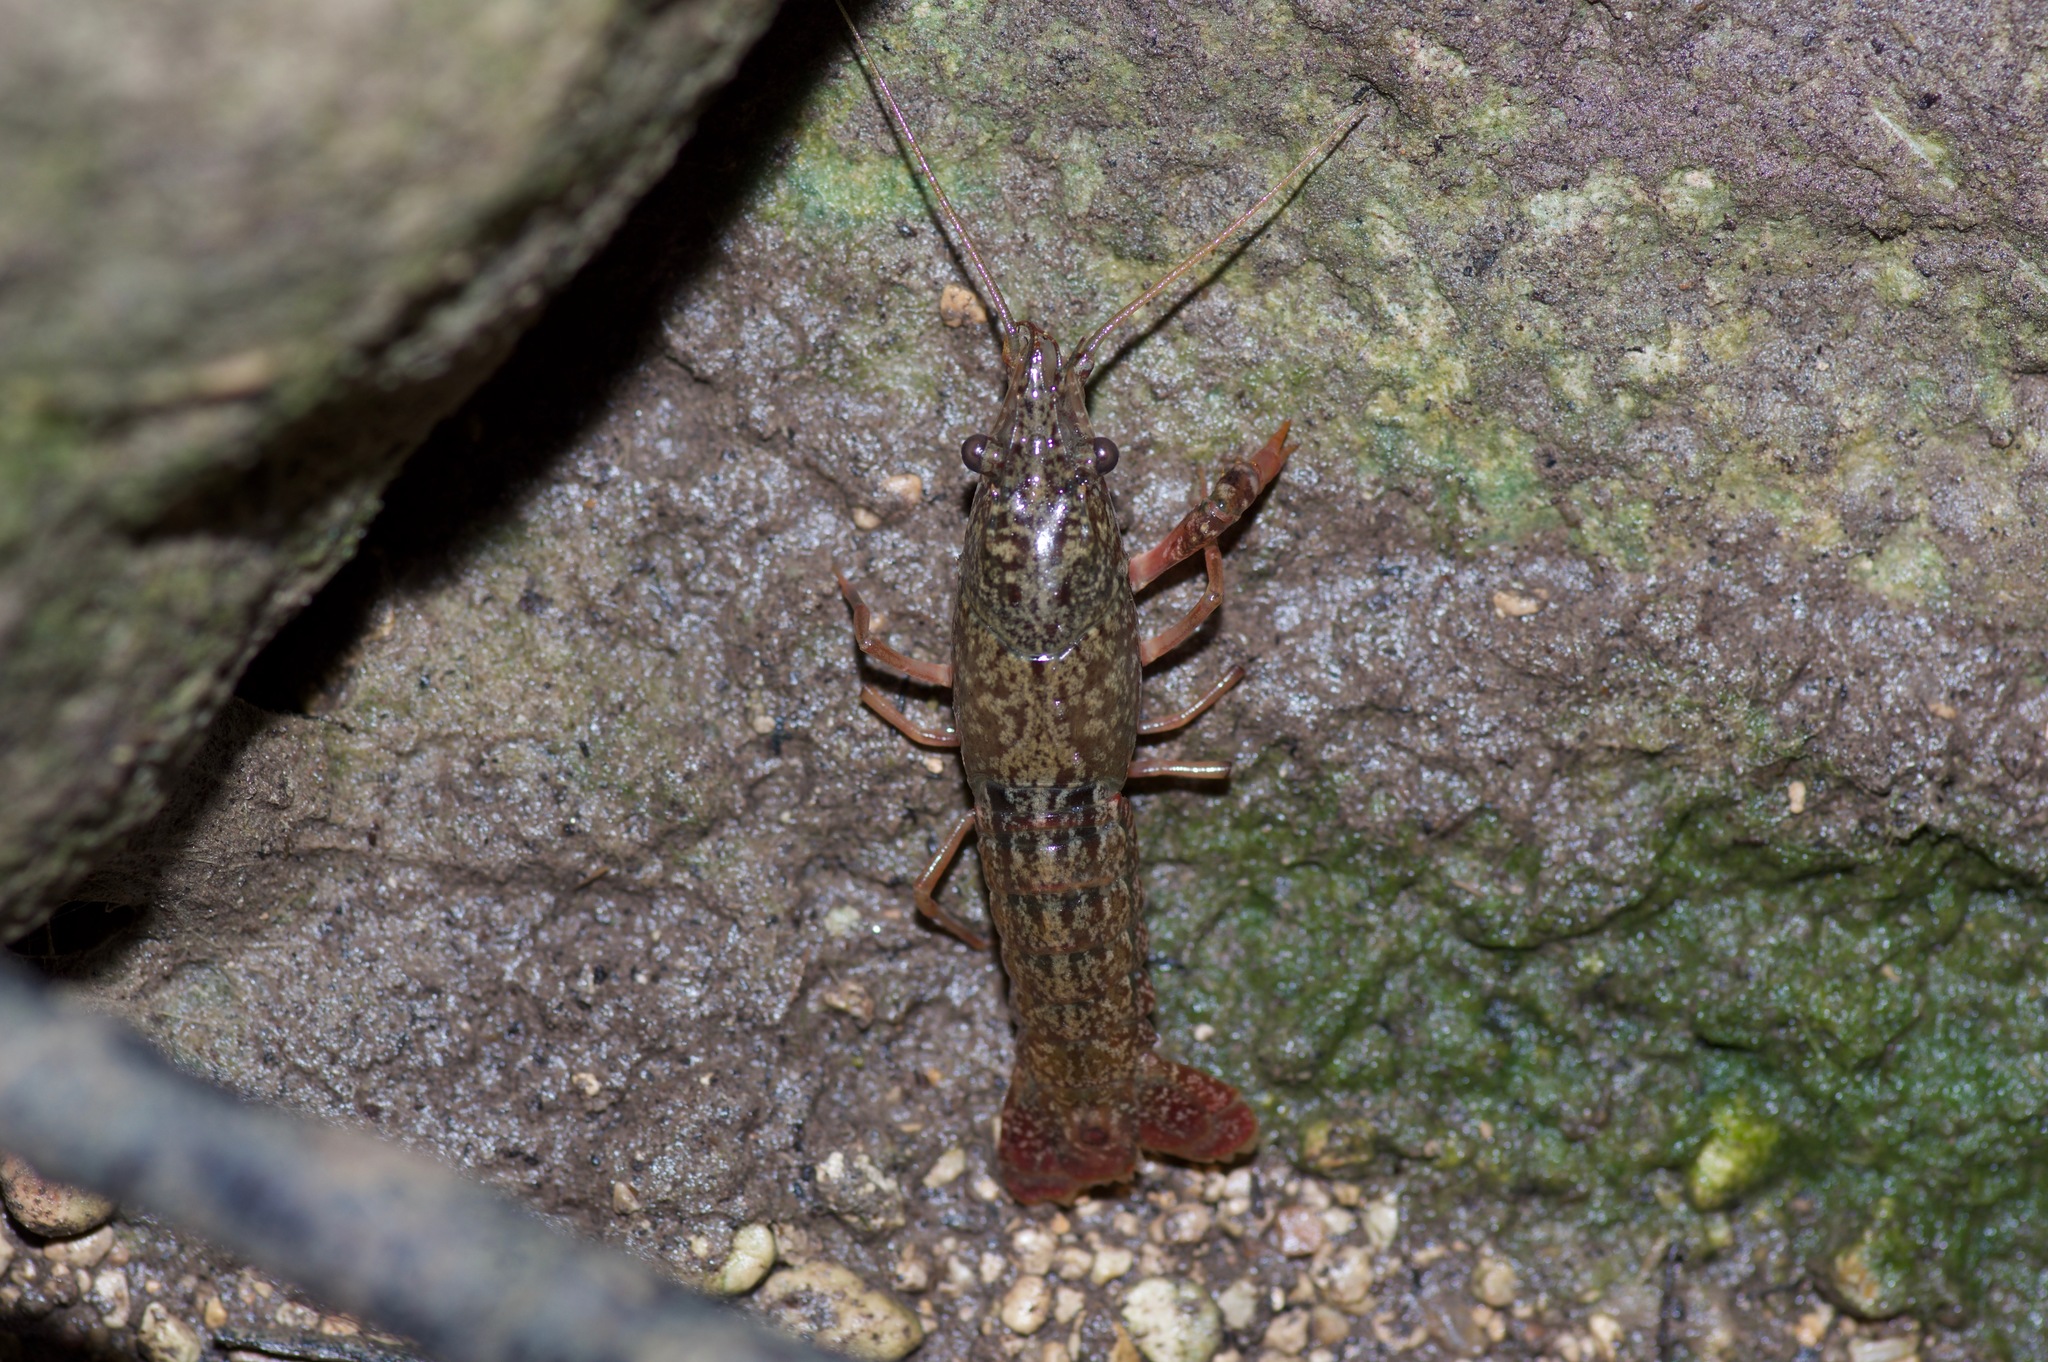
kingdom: Animalia
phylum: Arthropoda
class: Malacostraca
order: Decapoda
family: Cambaridae
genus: Procambarus
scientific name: Procambarus clarkii
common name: Red swamp crayfish
